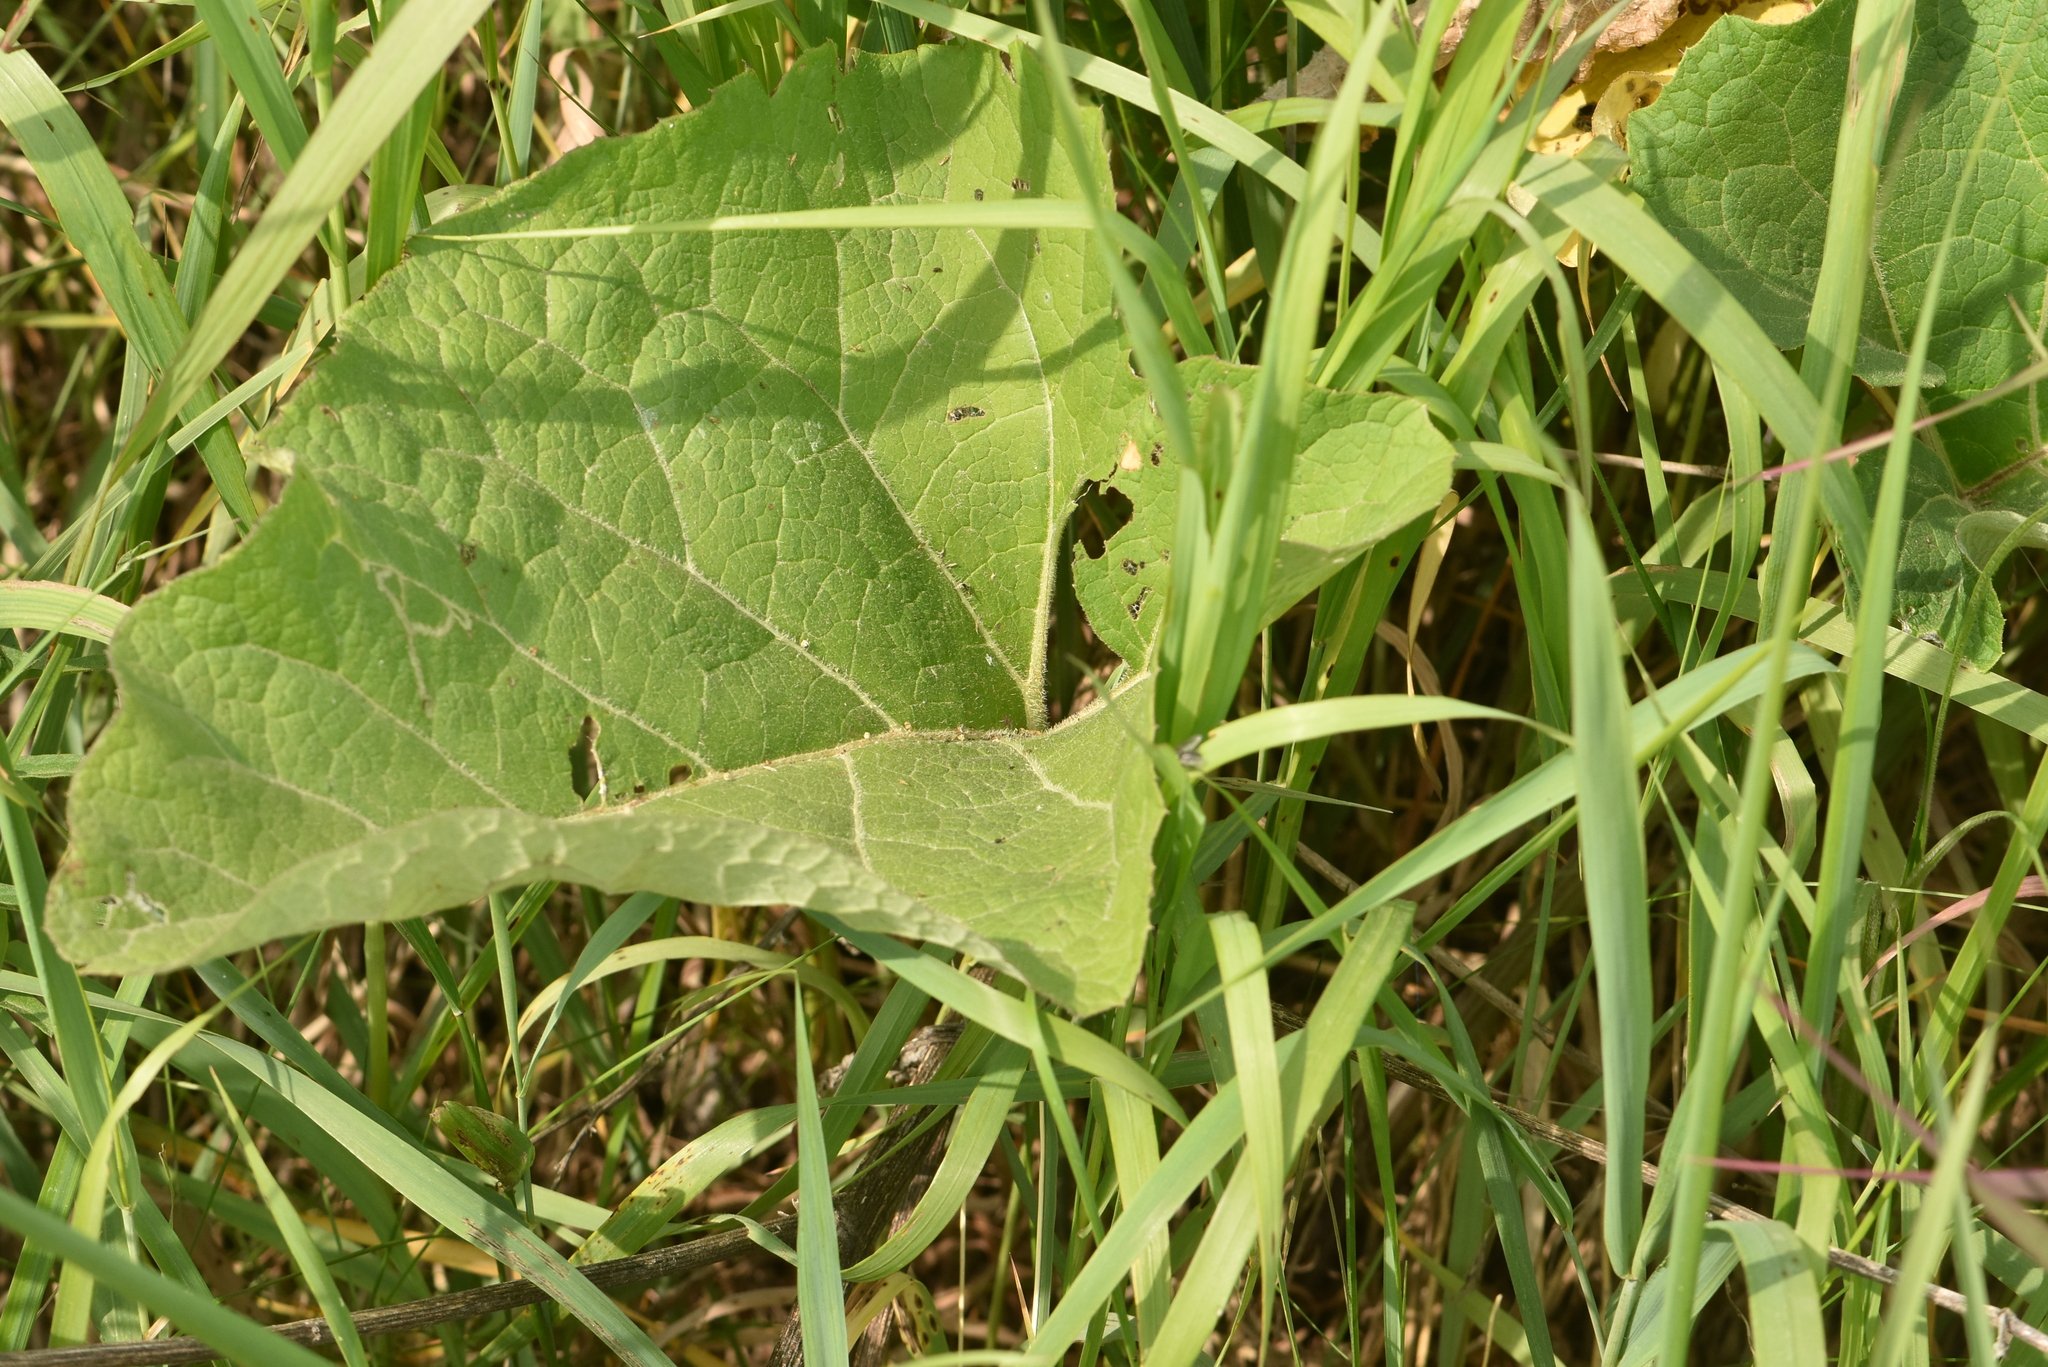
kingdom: Plantae
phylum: Tracheophyta
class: Magnoliopsida
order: Asterales
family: Asteraceae
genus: Arctium
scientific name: Arctium tomentosum
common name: Woolly burdock
